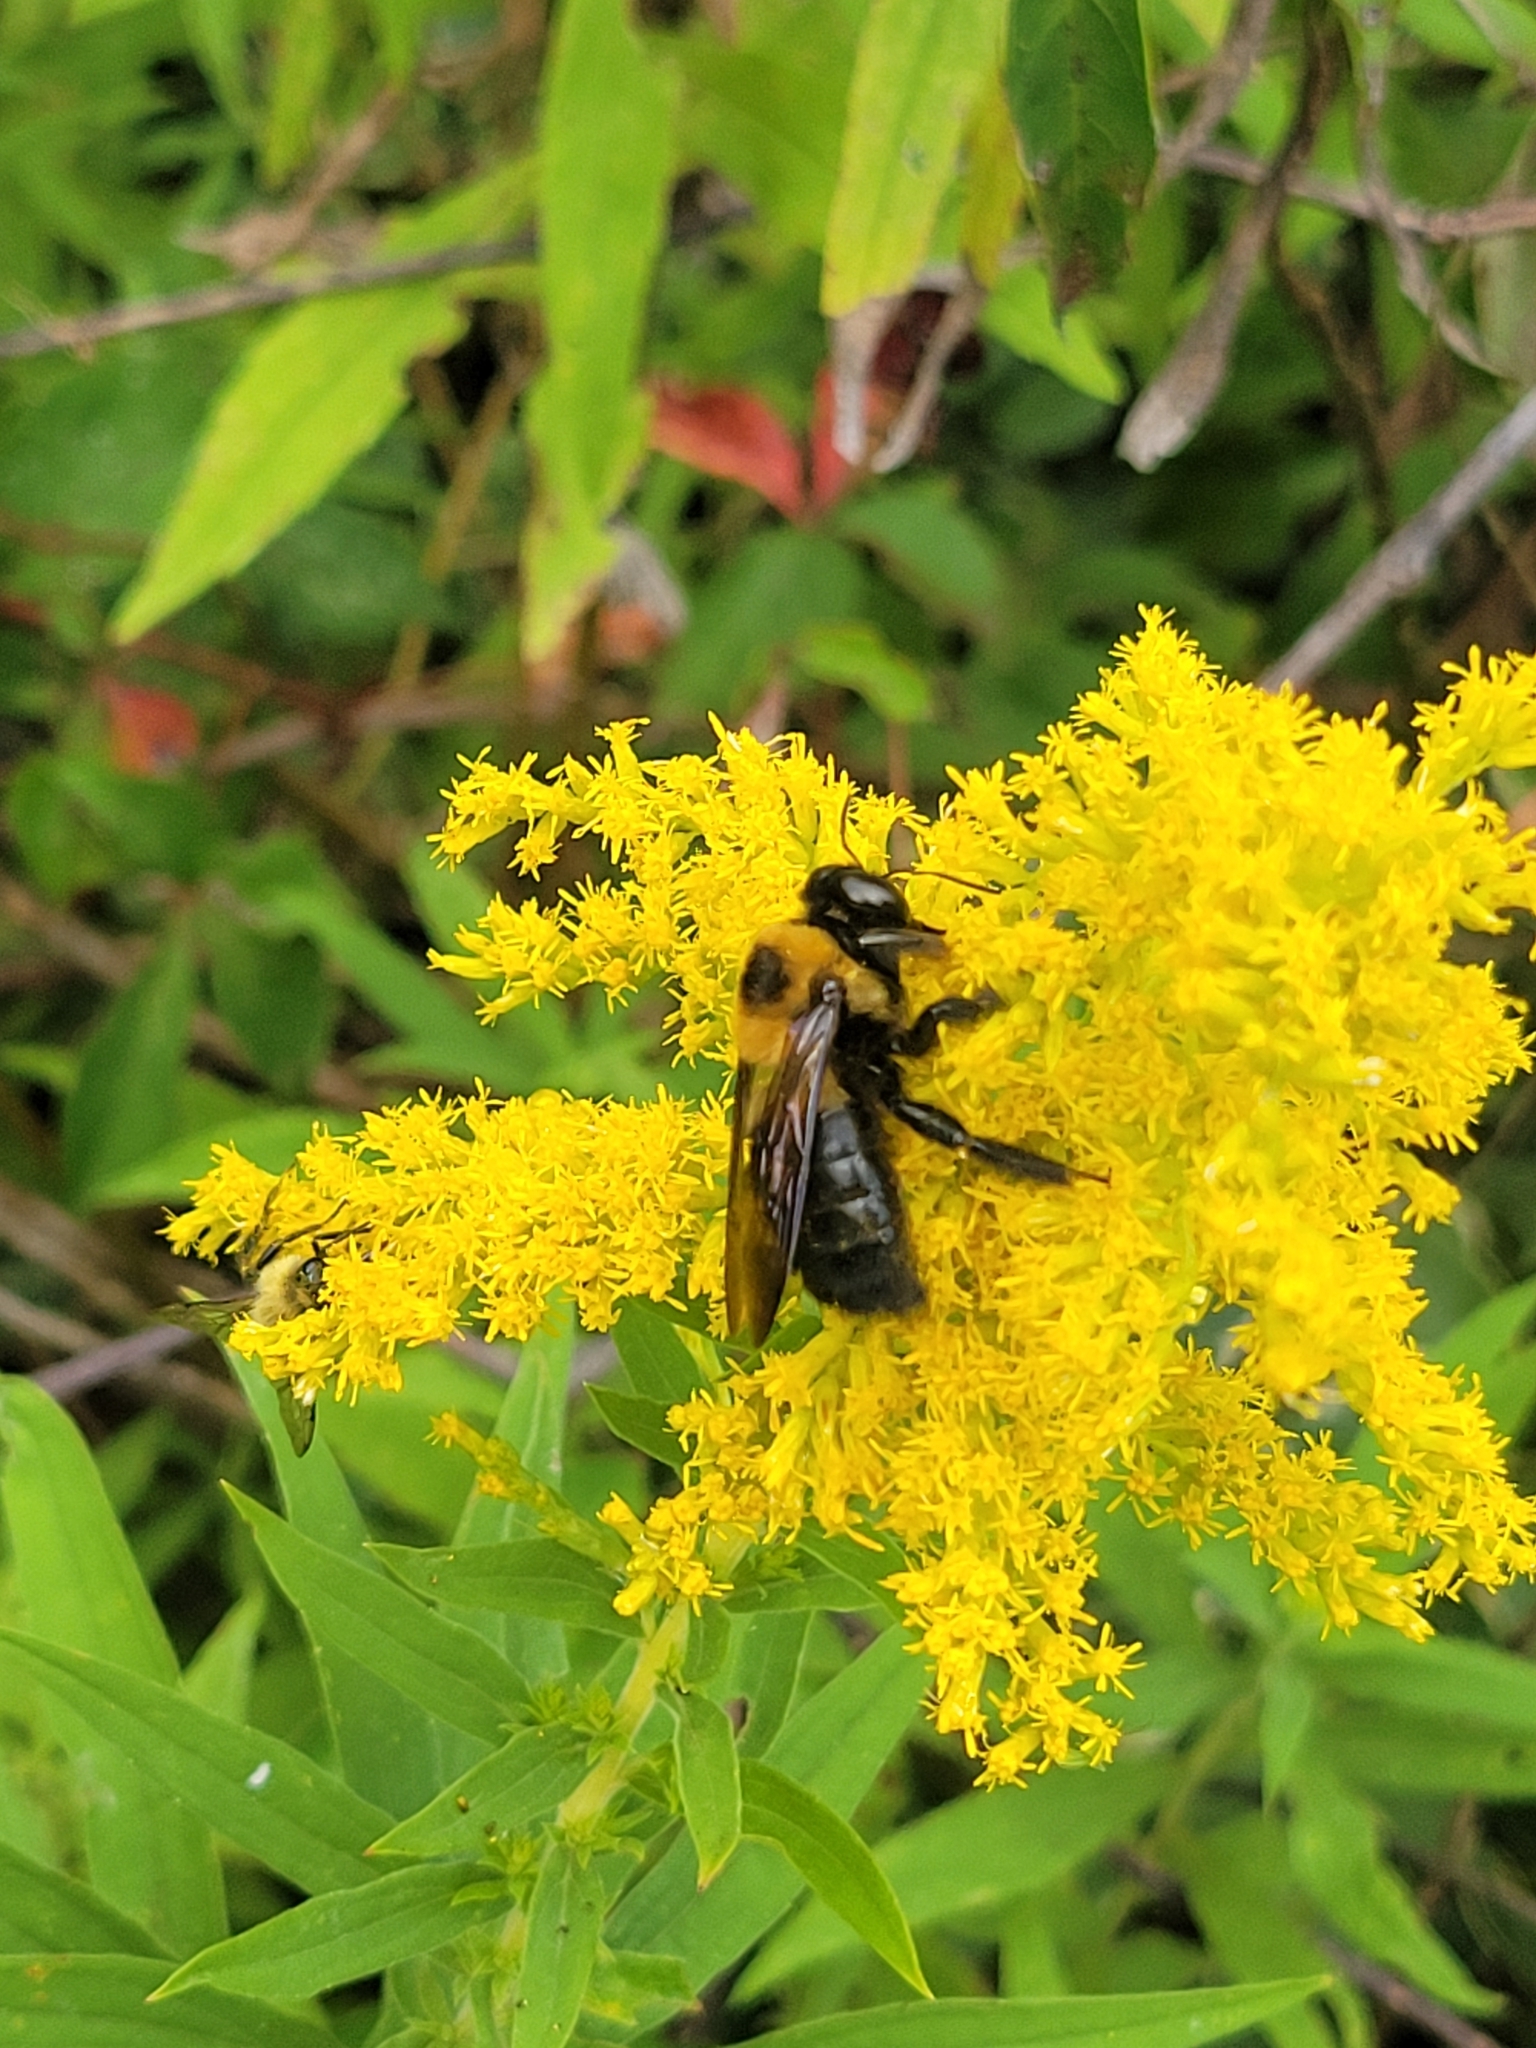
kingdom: Animalia
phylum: Arthropoda
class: Insecta
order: Hymenoptera
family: Apidae
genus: Xylocopa
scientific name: Xylocopa virginica
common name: Carpenter bee
